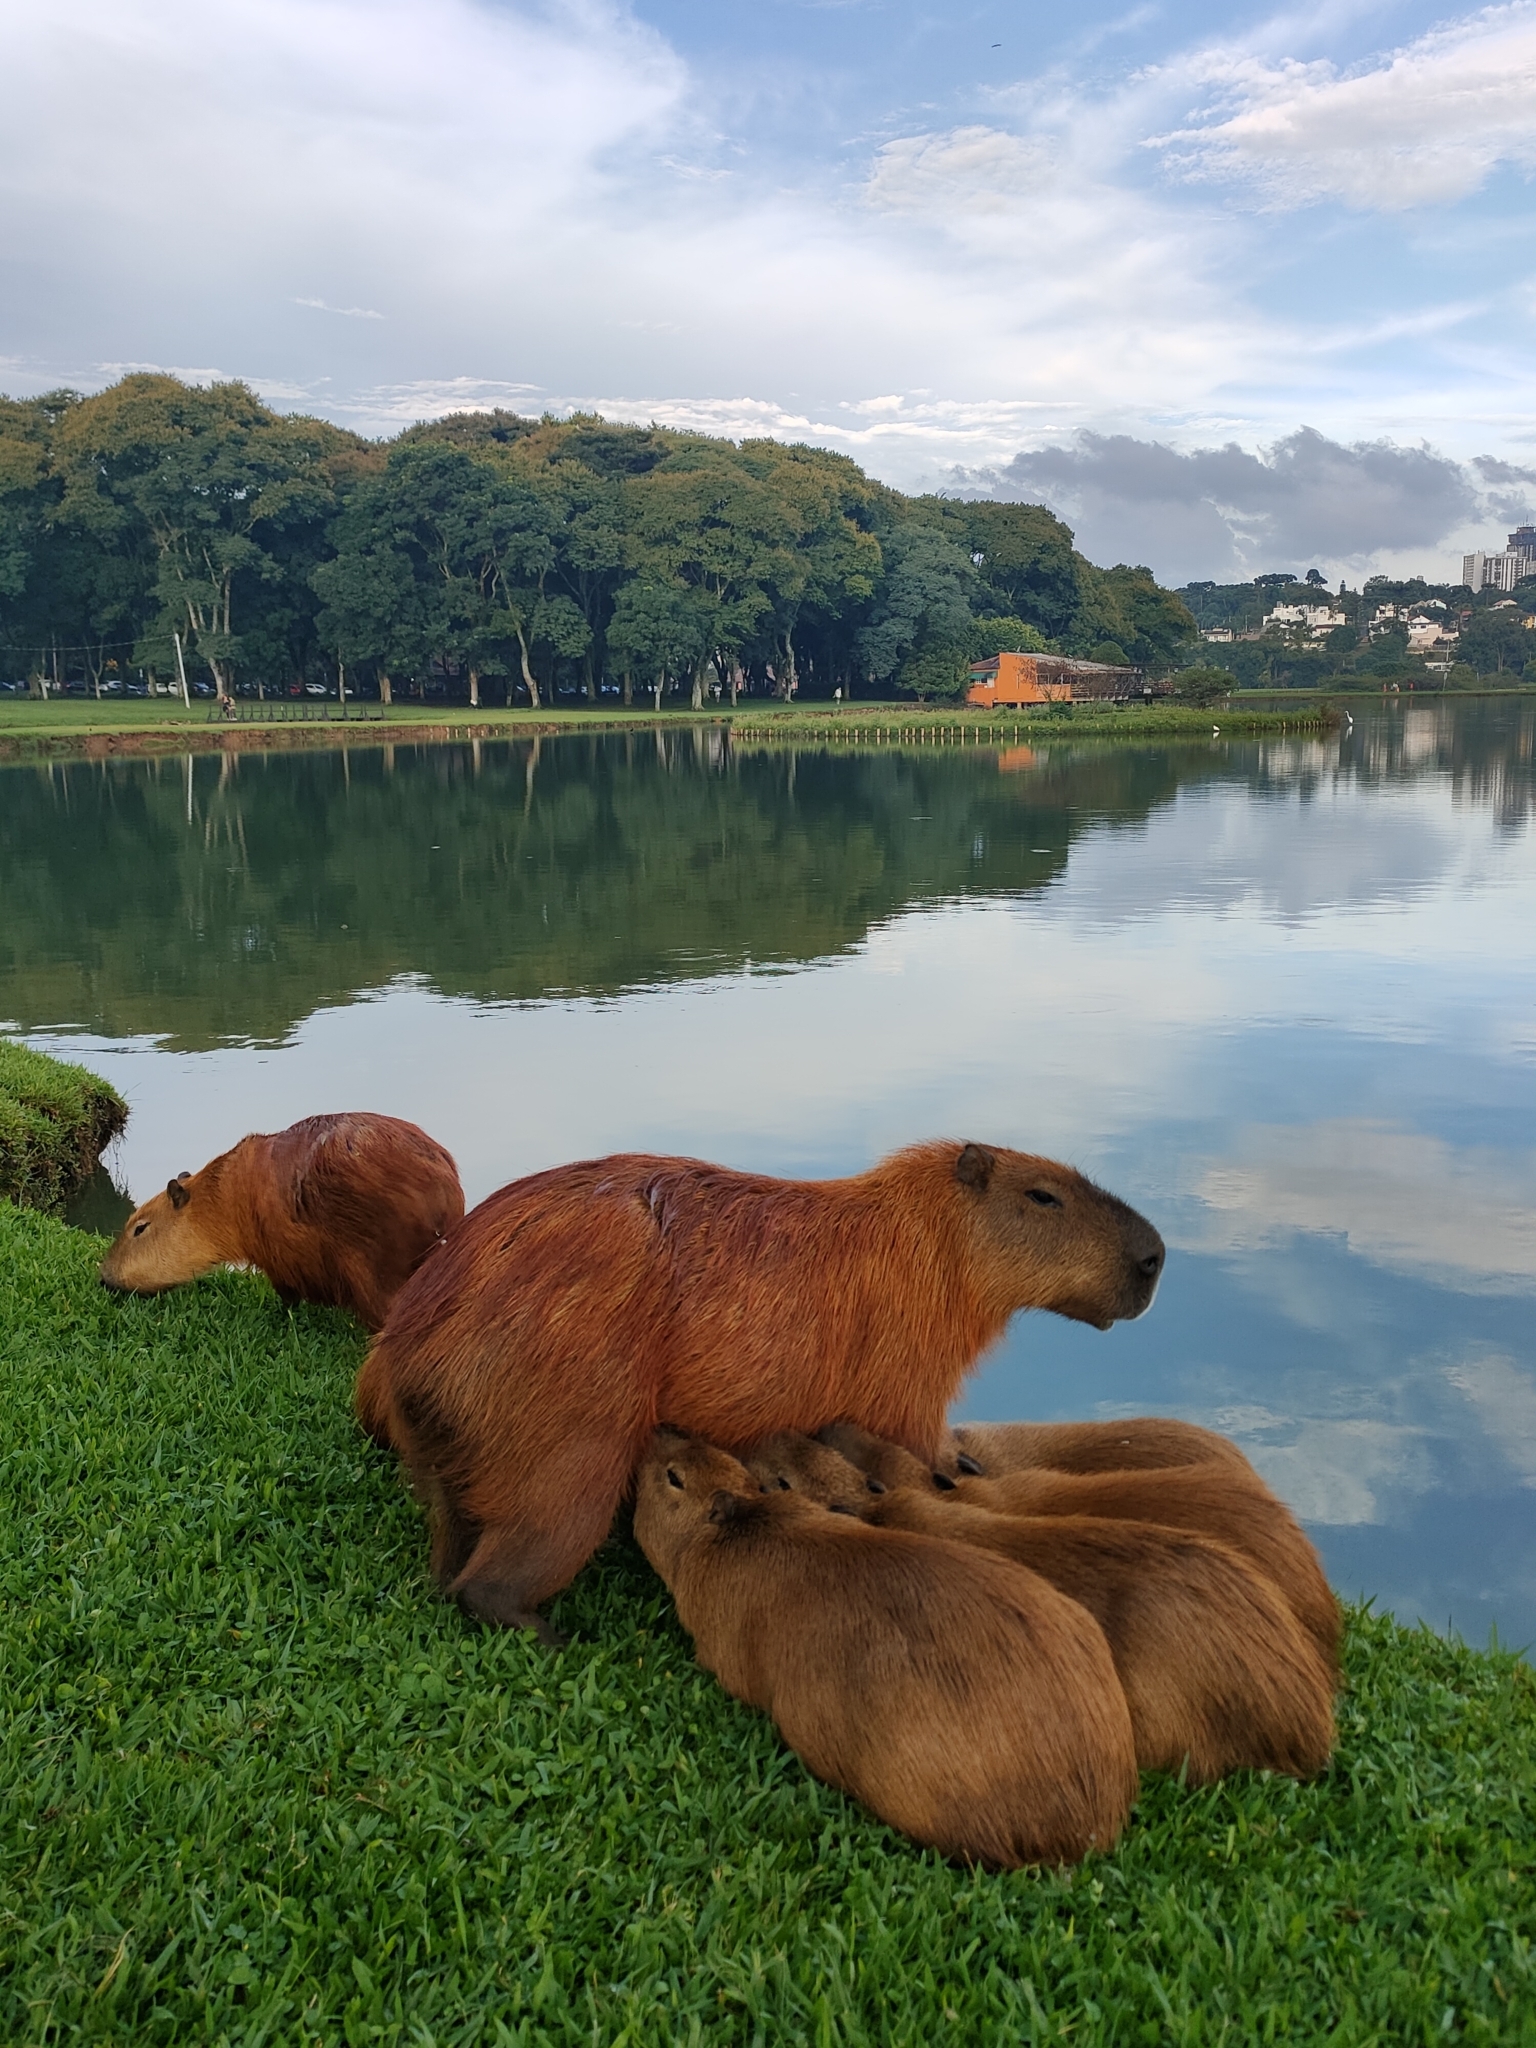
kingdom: Animalia
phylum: Chordata
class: Mammalia
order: Rodentia
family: Caviidae
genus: Hydrochoerus
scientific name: Hydrochoerus hydrochaeris
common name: Capybara
